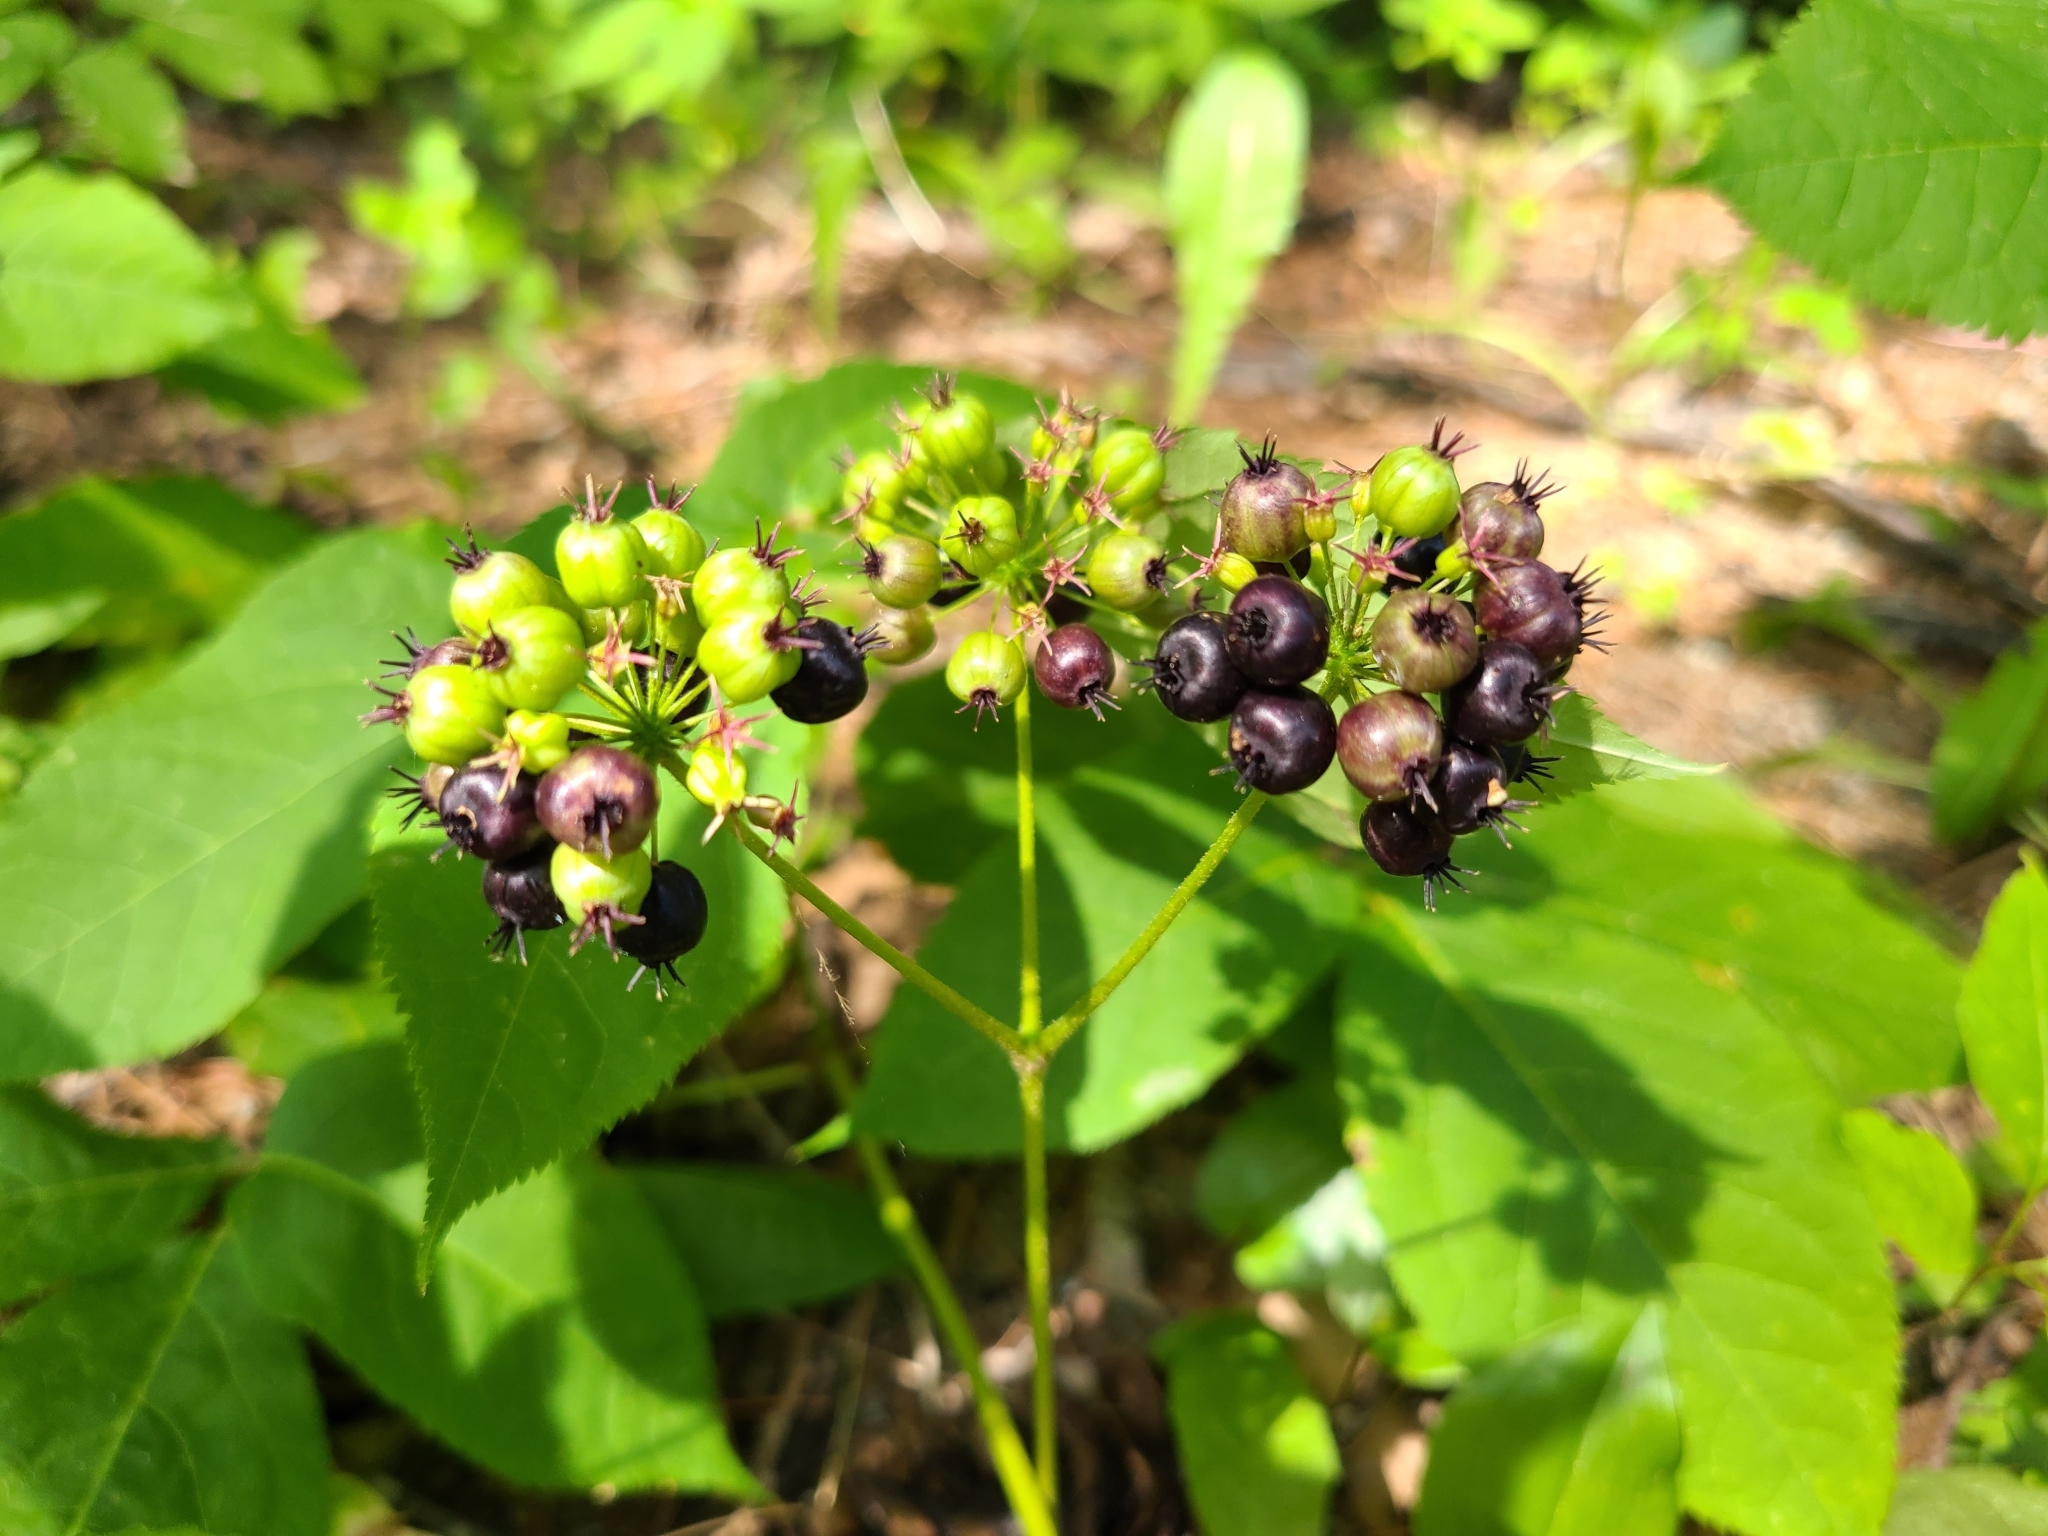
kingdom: Plantae
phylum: Tracheophyta
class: Magnoliopsida
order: Apiales
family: Araliaceae
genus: Aralia
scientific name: Aralia nudicaulis
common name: Wild sarsaparilla
